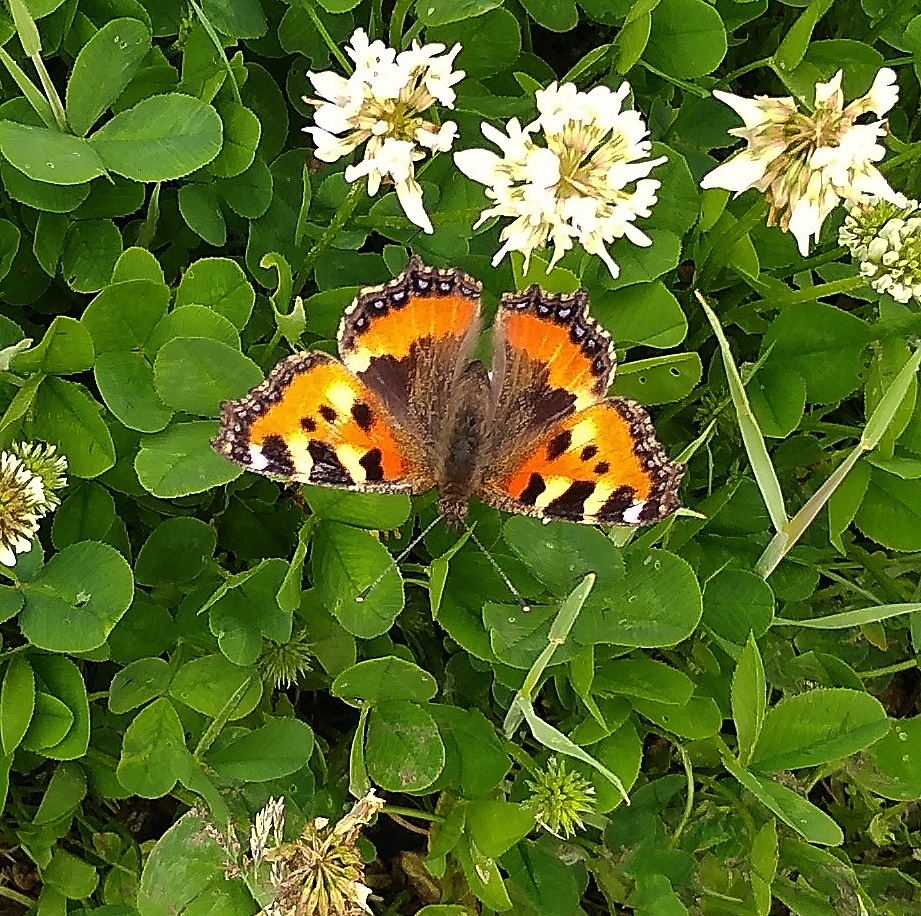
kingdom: Animalia
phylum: Arthropoda
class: Insecta
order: Lepidoptera
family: Nymphalidae
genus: Aglais
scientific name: Aglais urticae
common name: Small tortoiseshell
